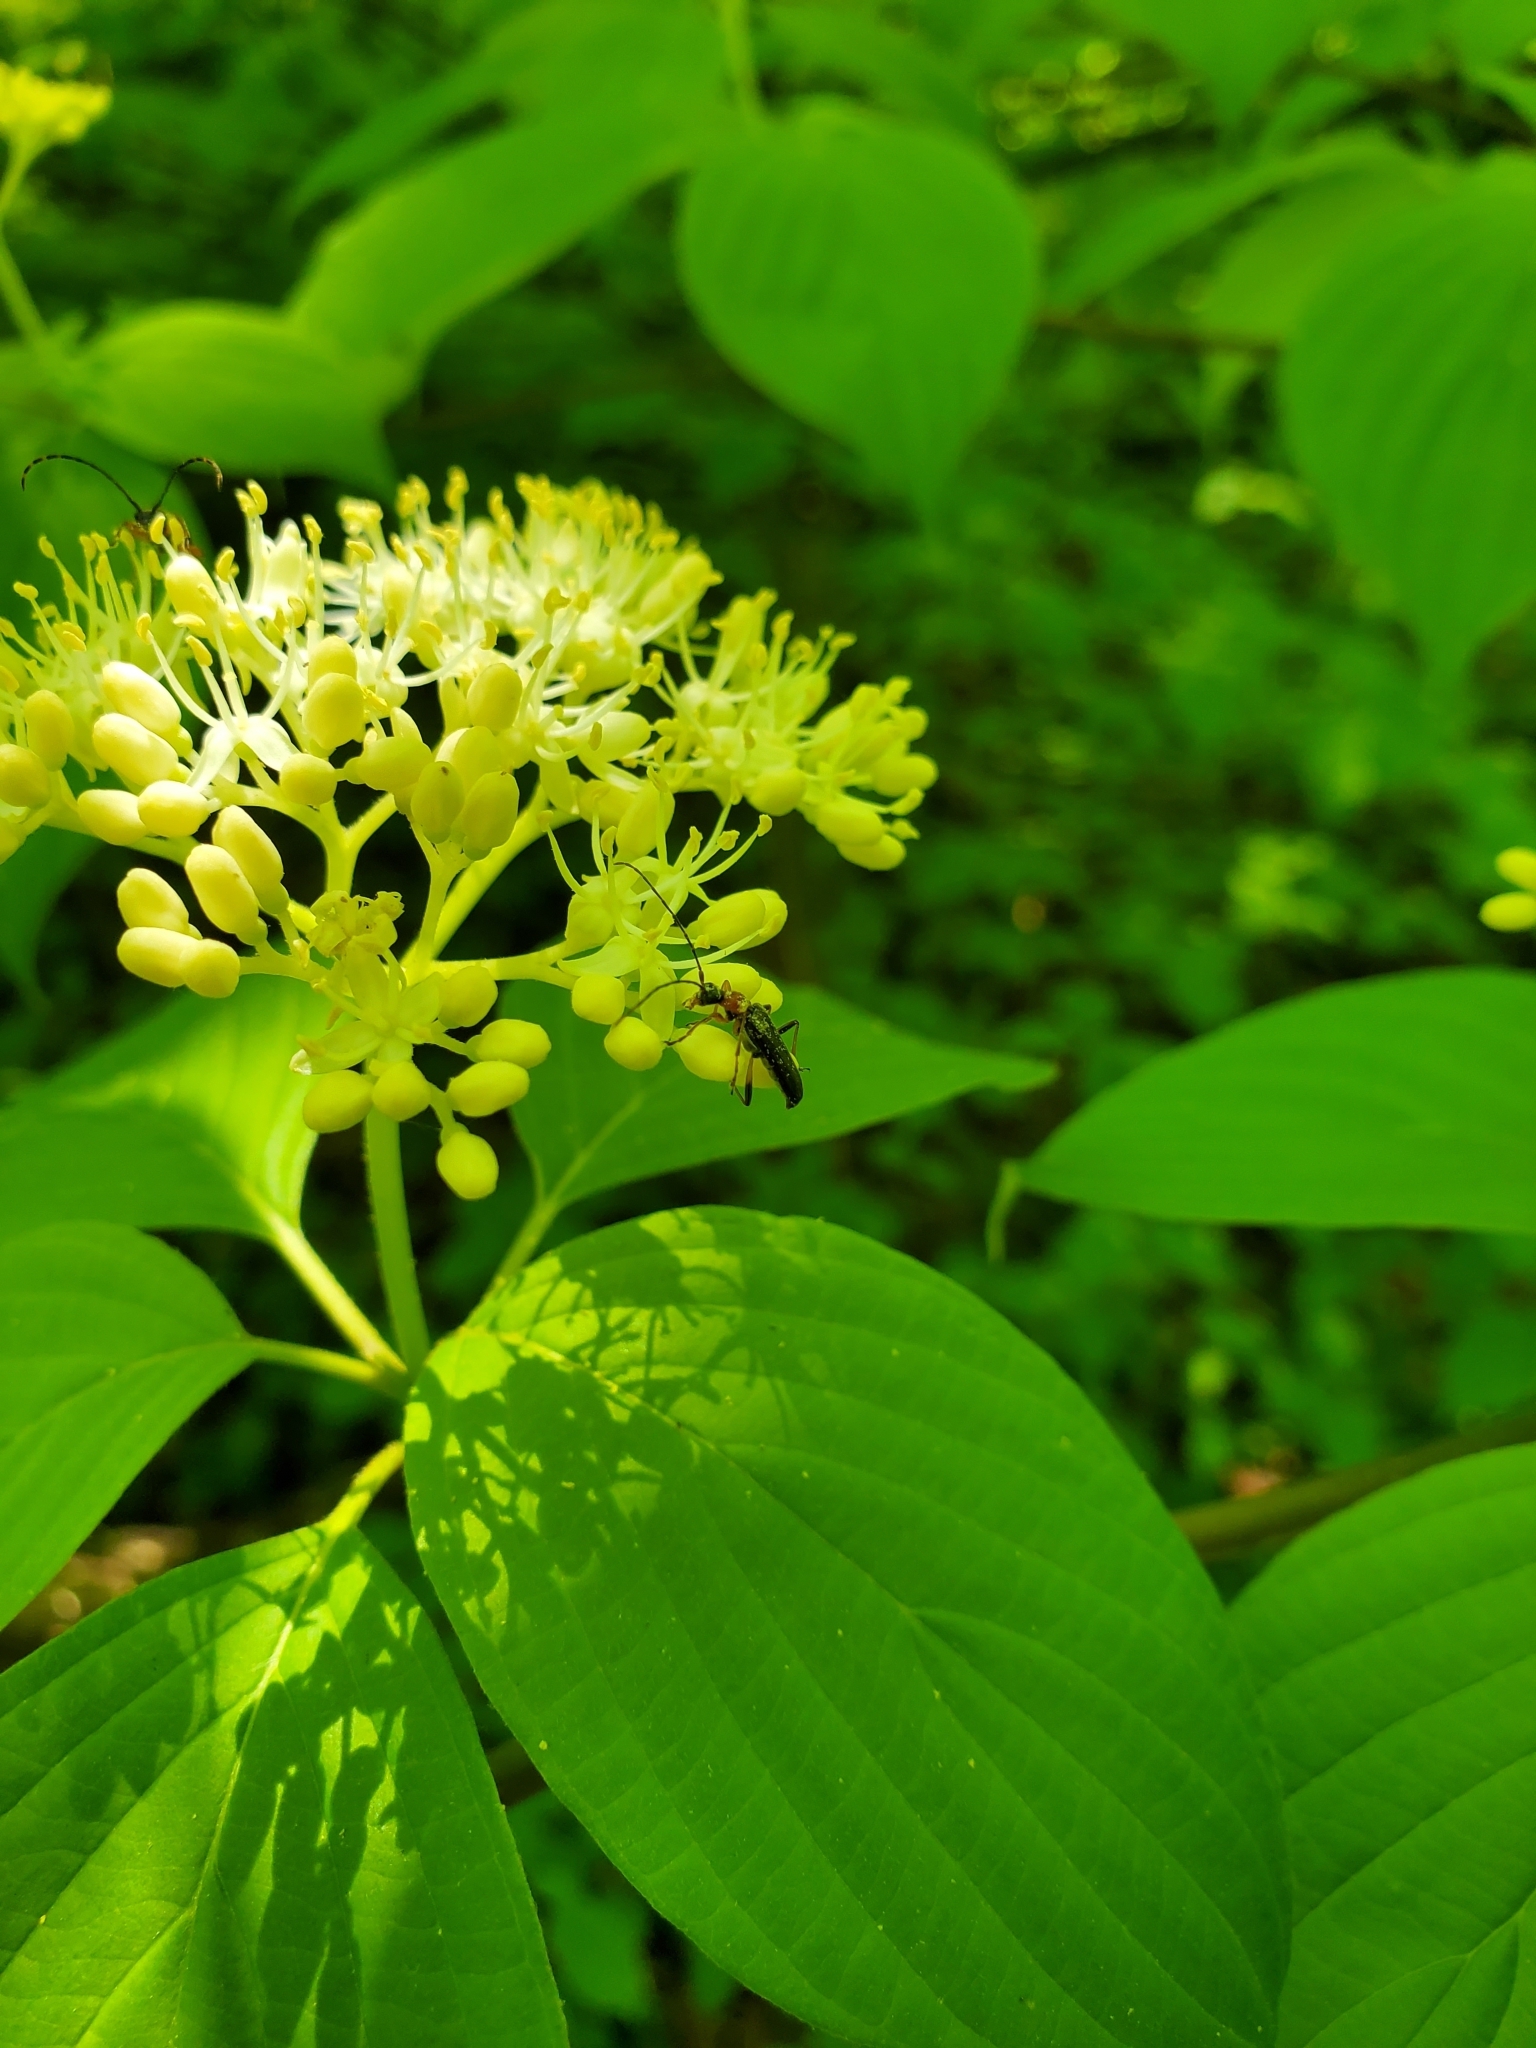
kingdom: Animalia
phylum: Arthropoda
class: Insecta
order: Coleoptera
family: Cerambycidae
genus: Pidonia
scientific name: Pidonia ruficollis
